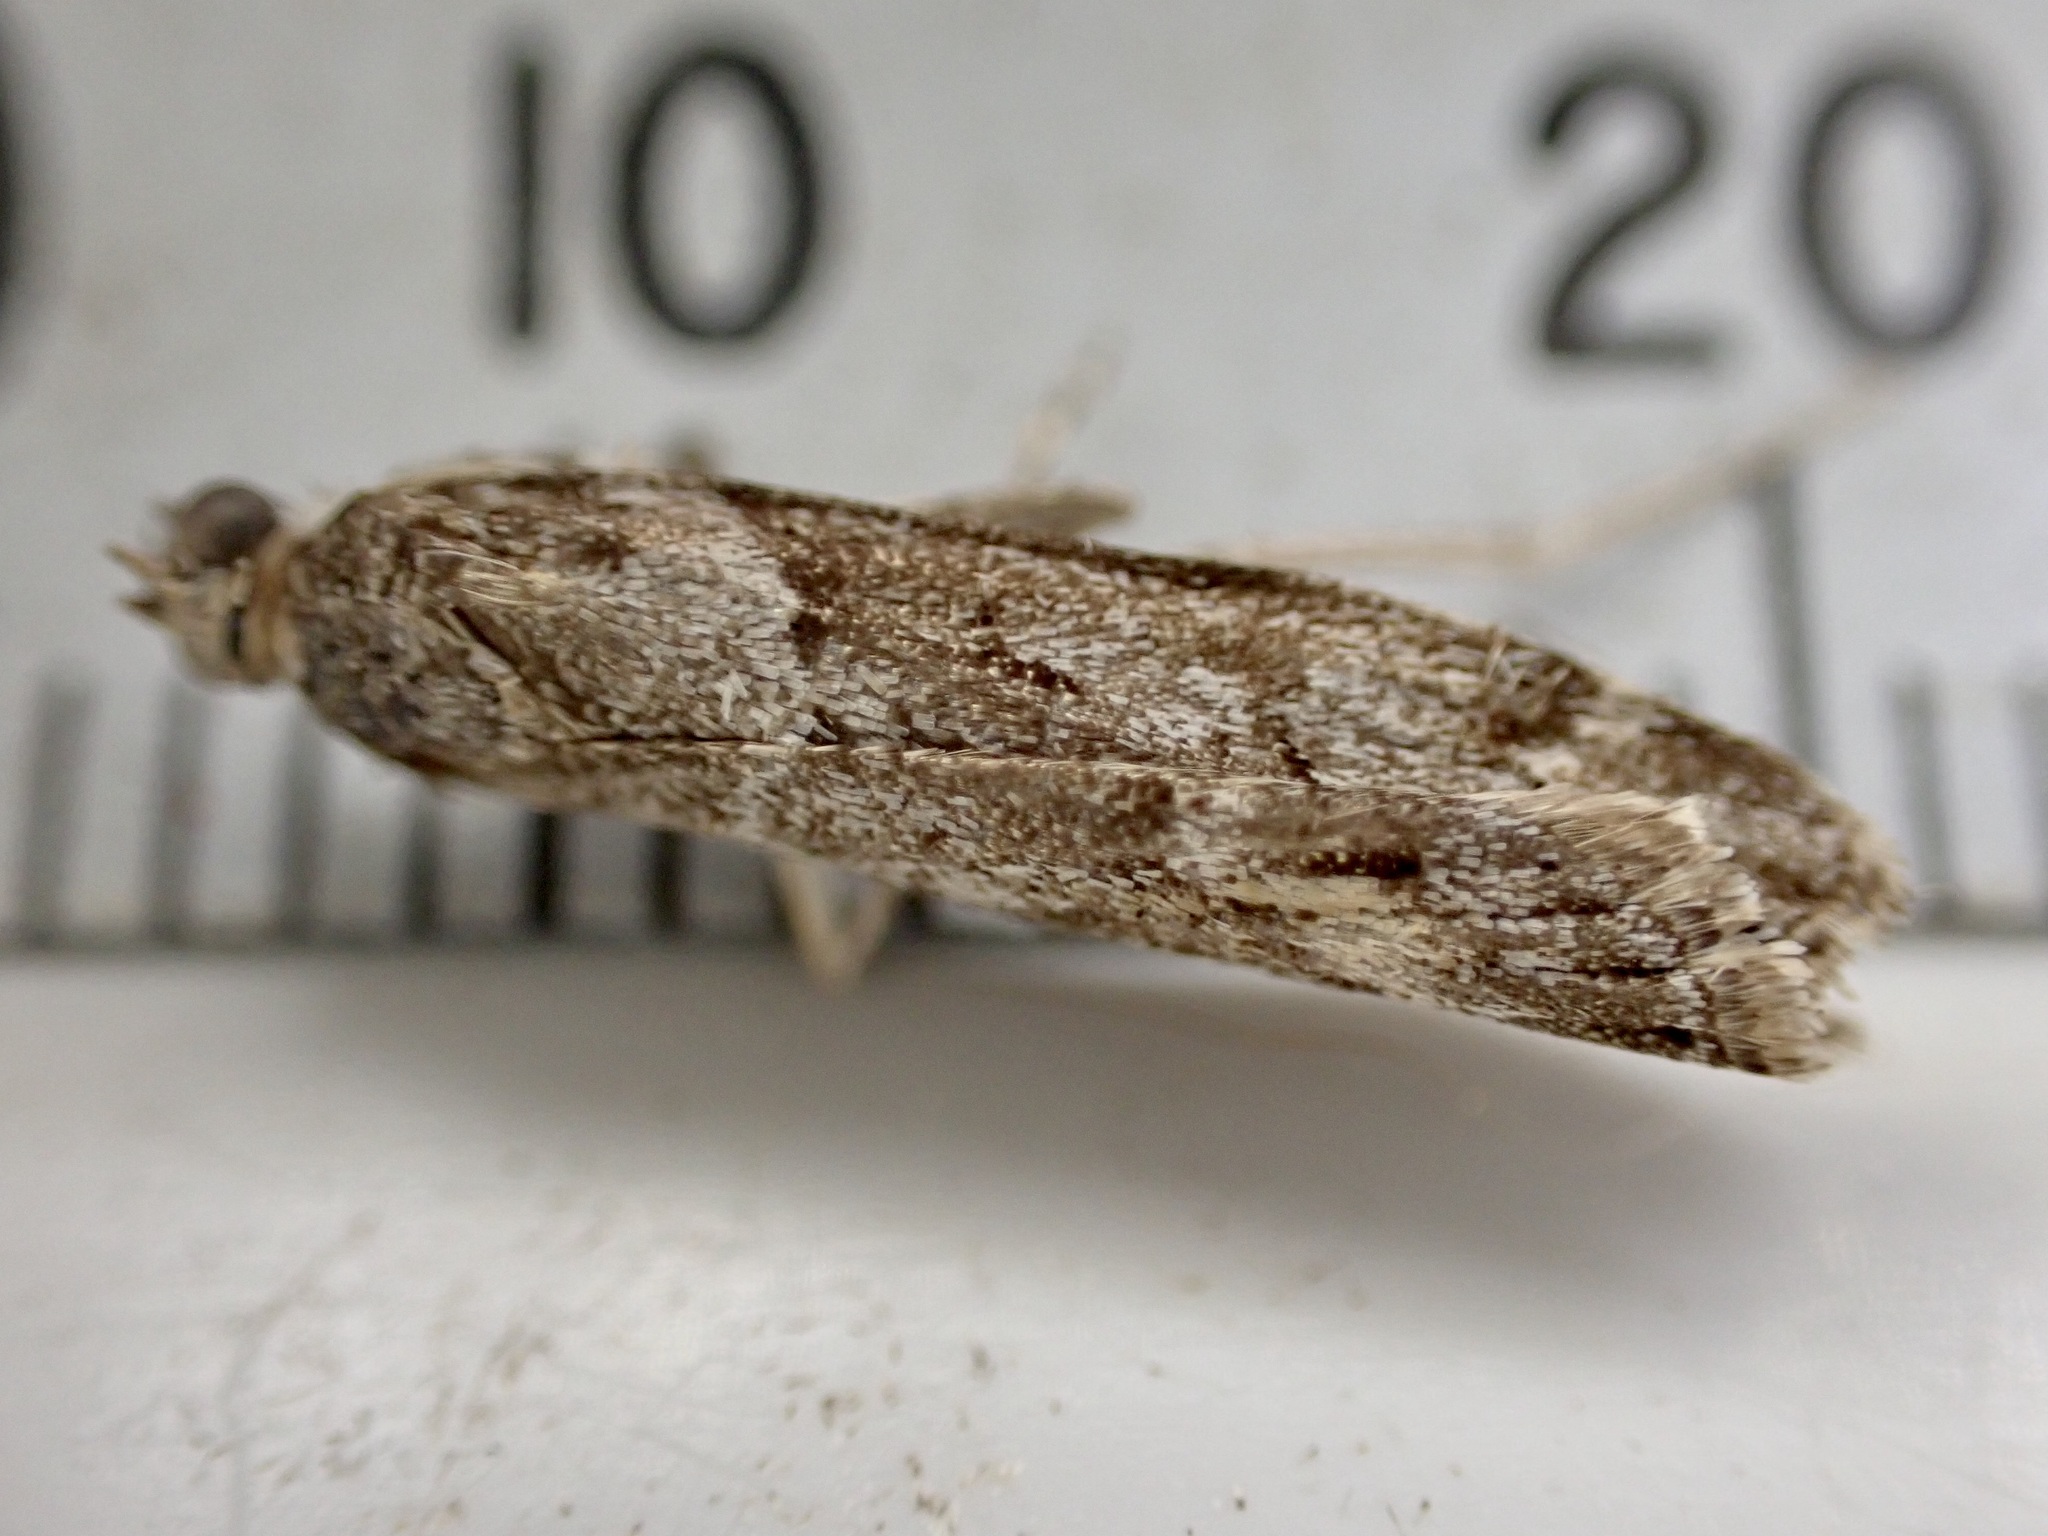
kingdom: Animalia
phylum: Arthropoda
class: Insecta
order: Lepidoptera
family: Crambidae
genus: Eudonia
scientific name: Eudonia submarginalis
